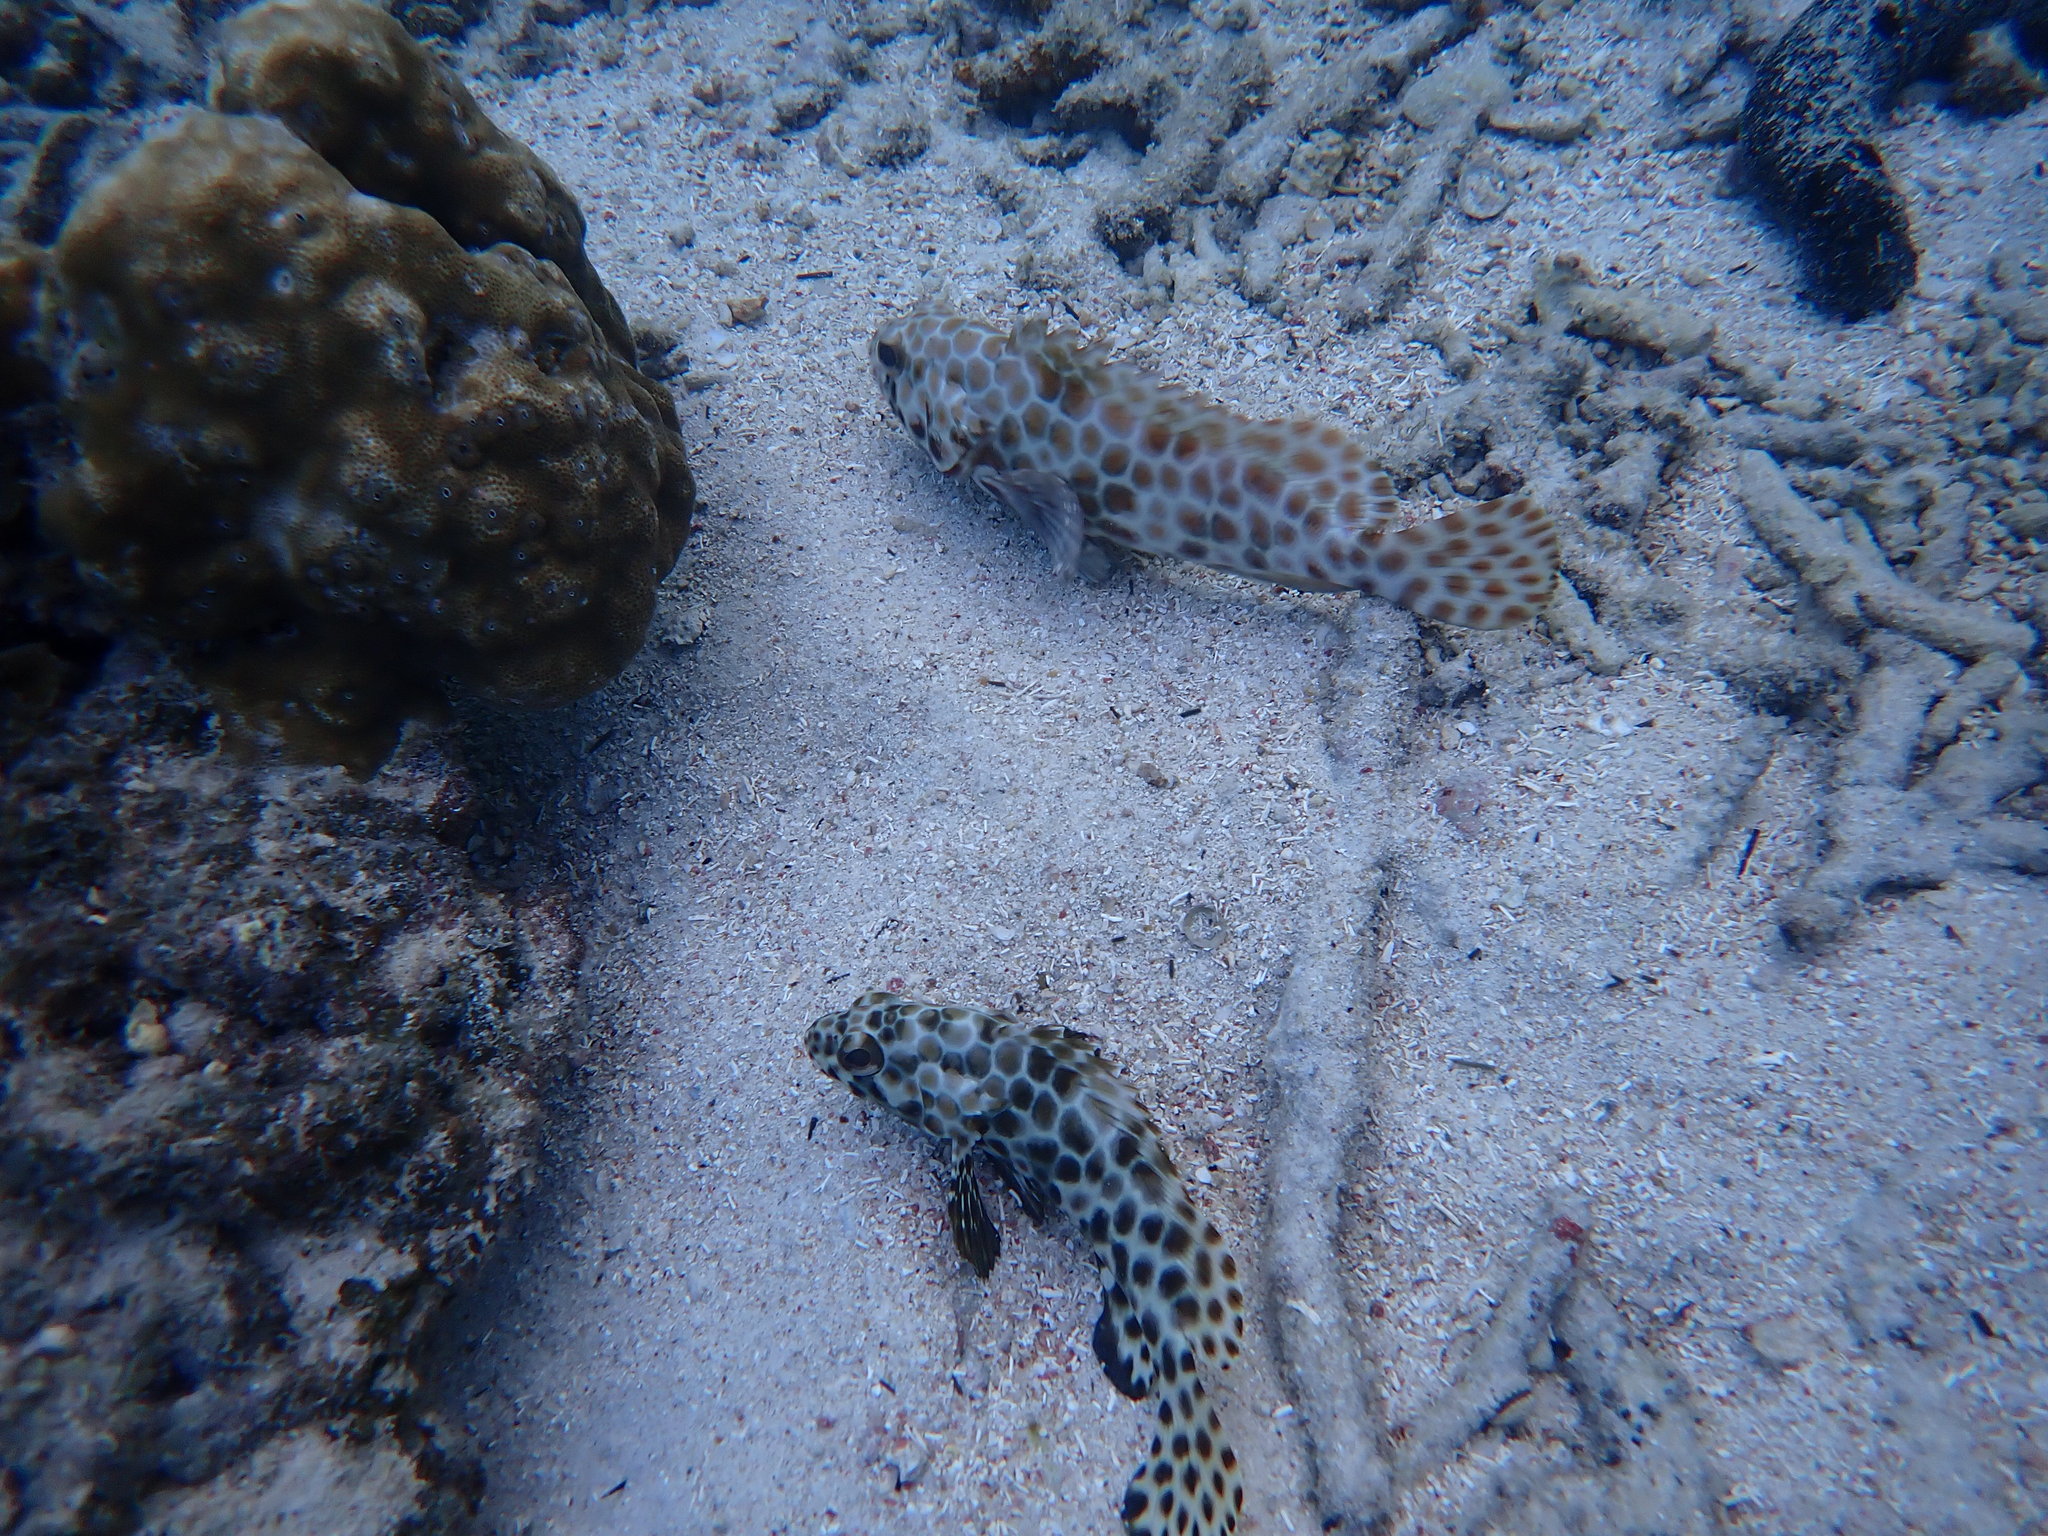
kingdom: Animalia
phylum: Chordata
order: Perciformes
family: Serranidae
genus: Epinephelus
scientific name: Epinephelus quoyanus
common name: Longfin grouper
